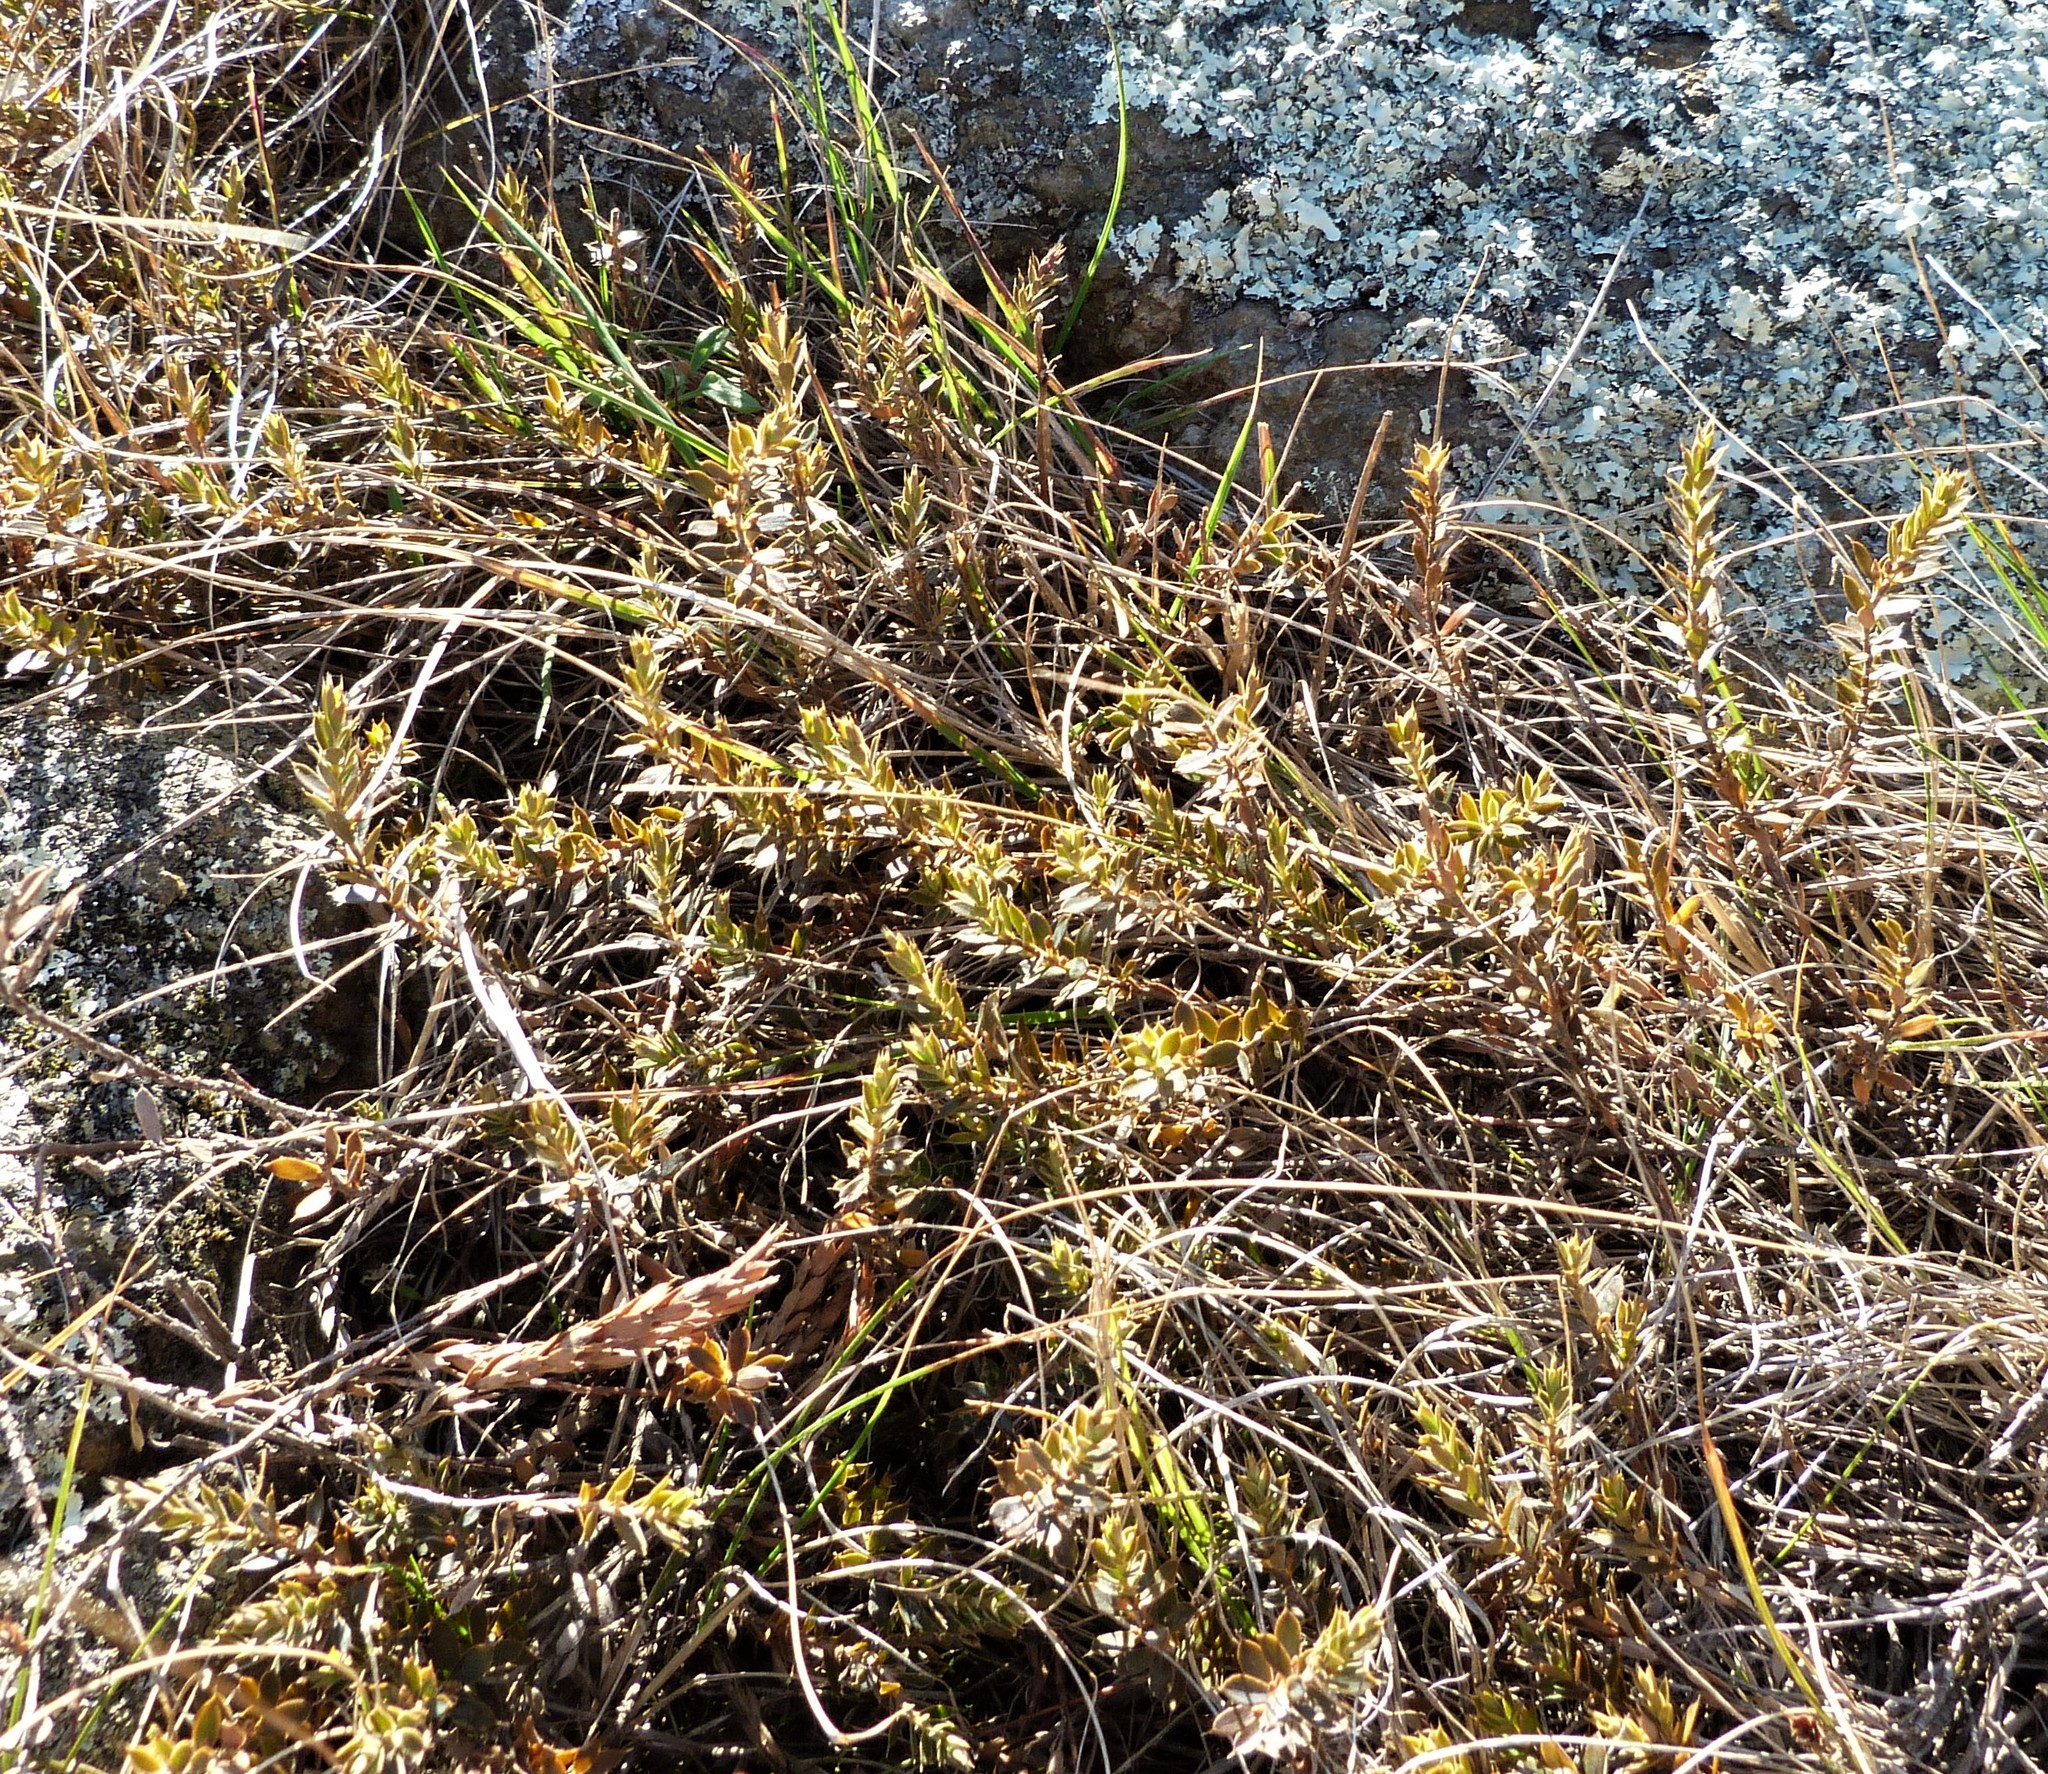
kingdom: Plantae
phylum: Tracheophyta
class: Magnoliopsida
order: Ericales
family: Ericaceae
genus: Styphelia
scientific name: Styphelia nesophila
